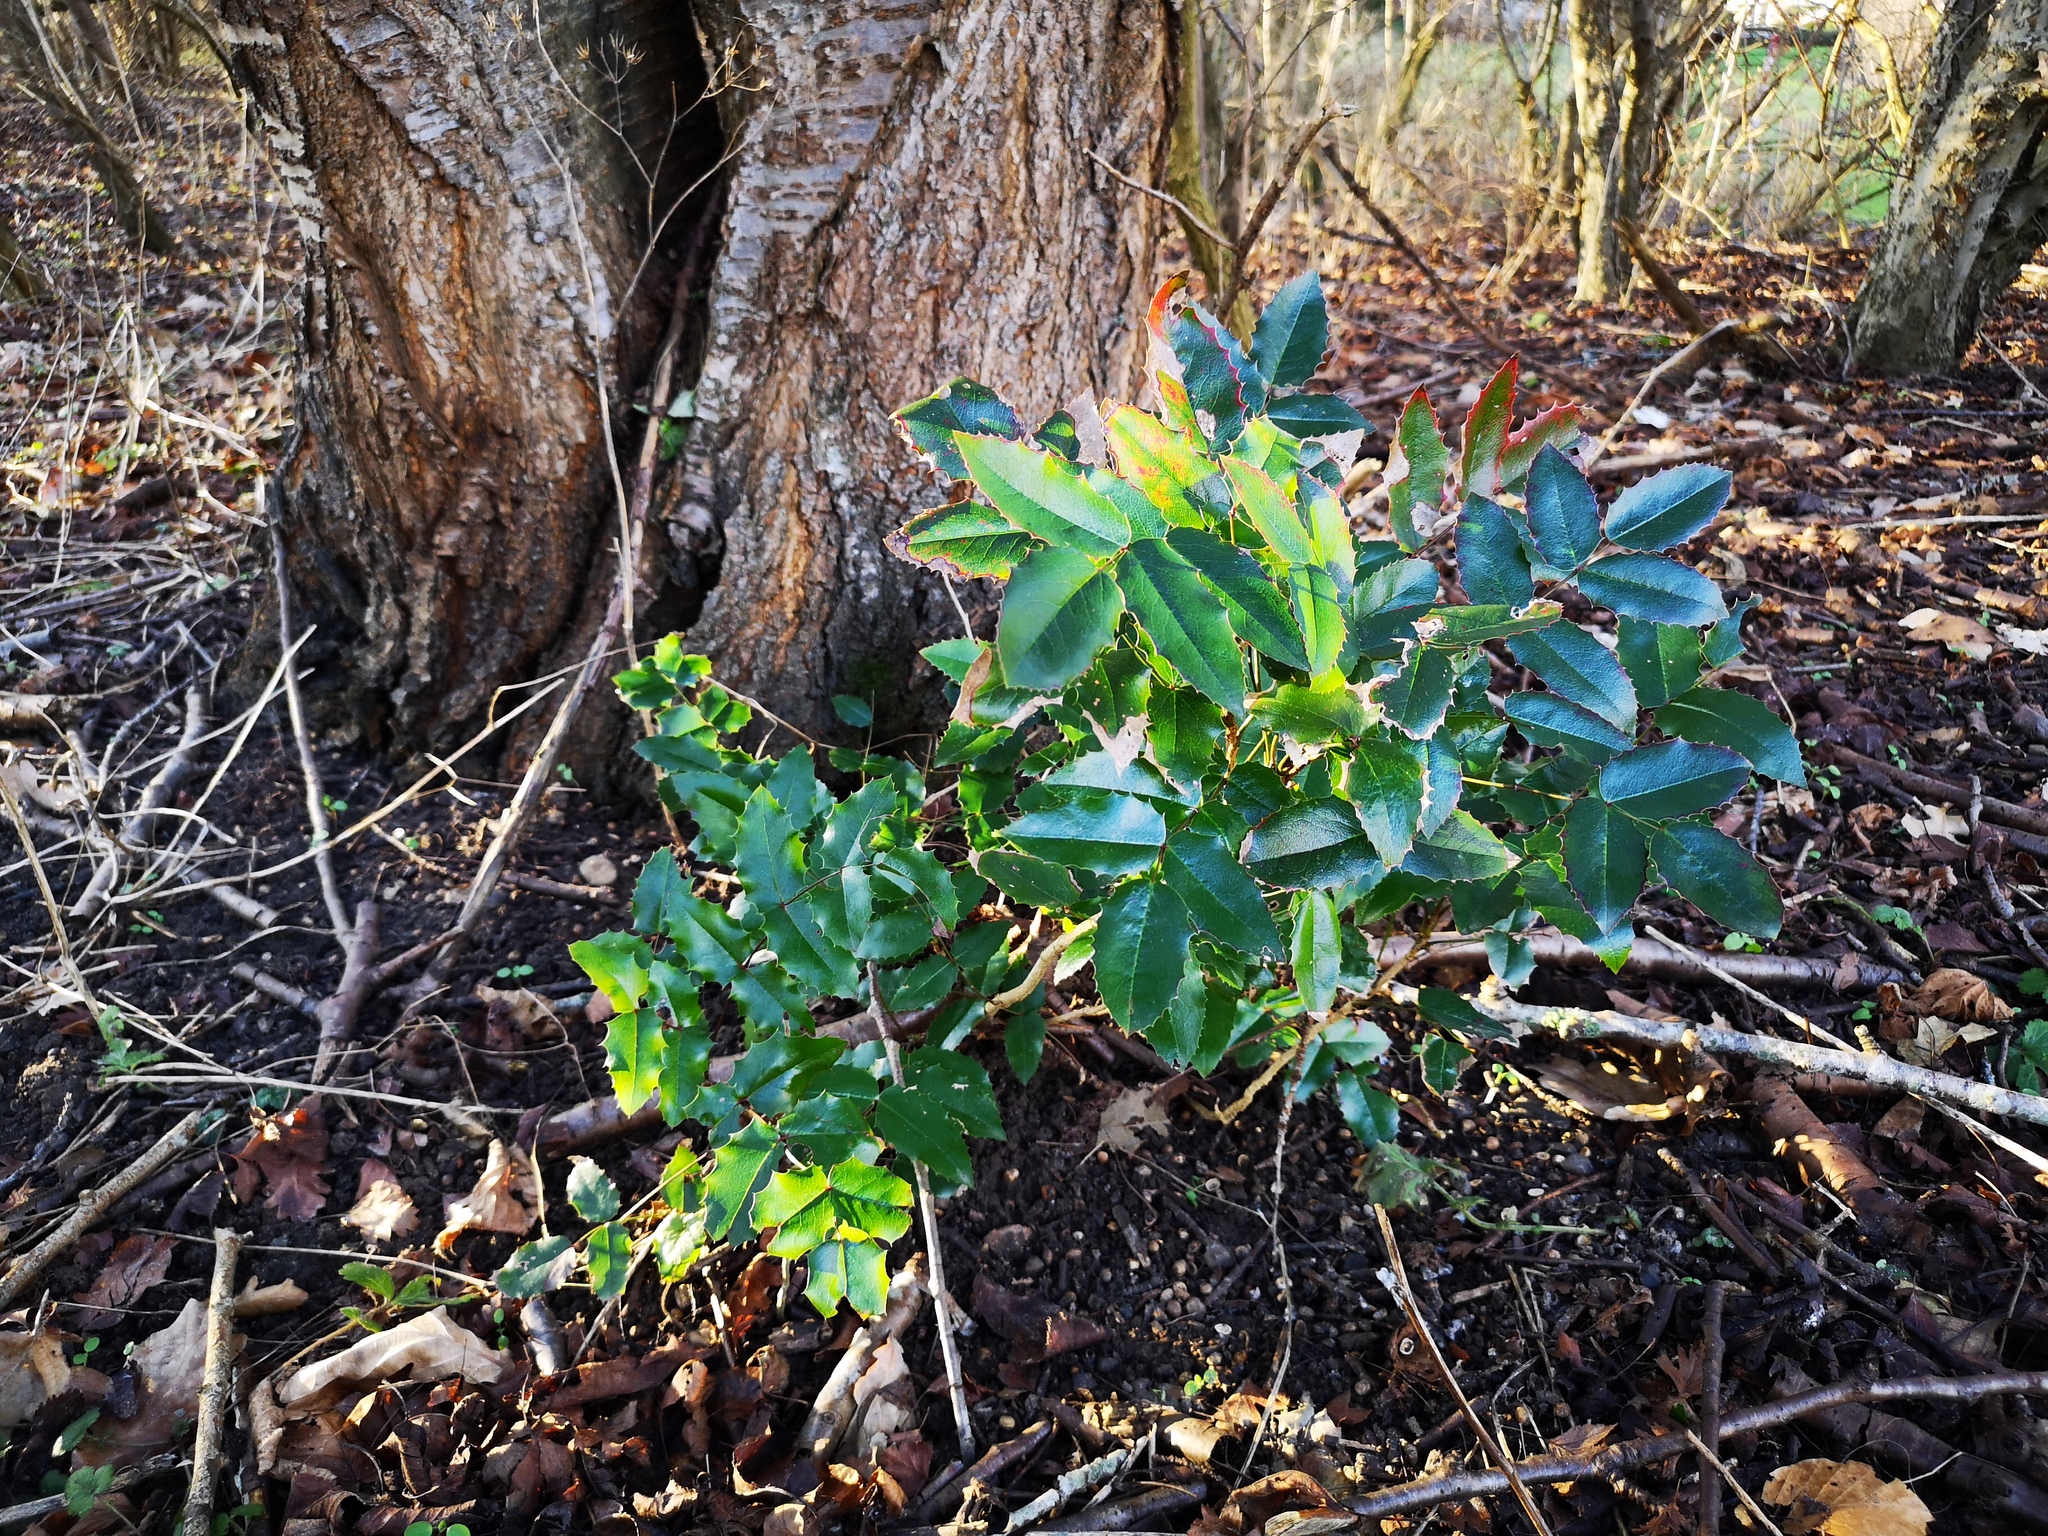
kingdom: Plantae
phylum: Tracheophyta
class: Magnoliopsida
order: Ranunculales
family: Berberidaceae
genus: Mahonia
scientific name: Mahonia aquifolium
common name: Oregon-grape
